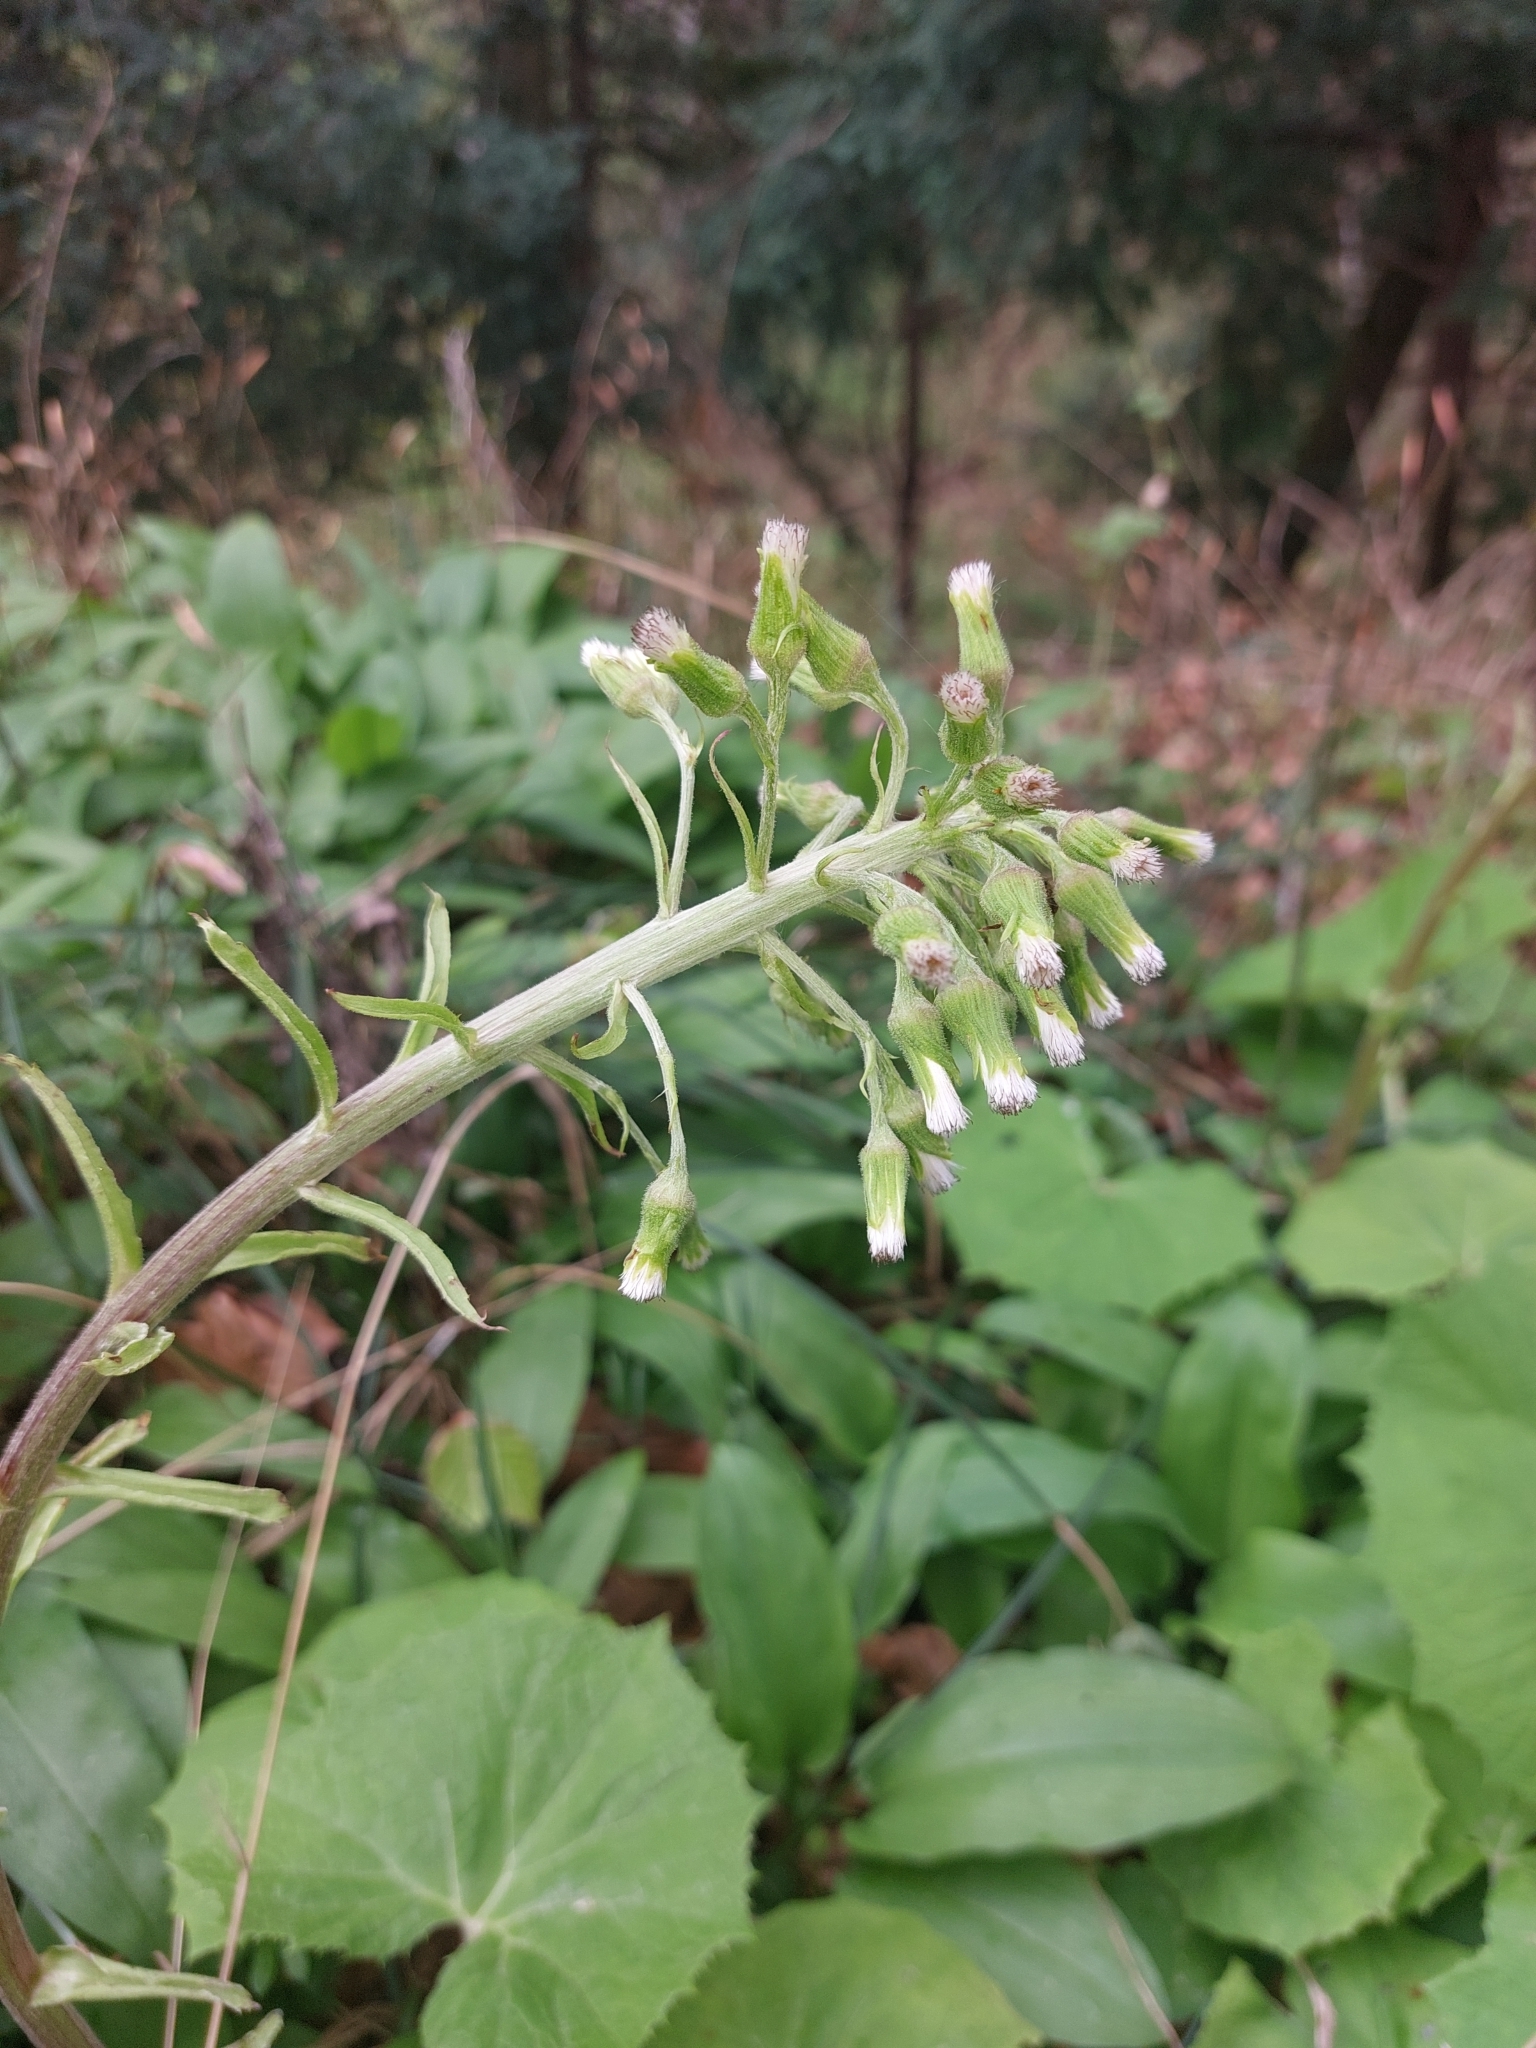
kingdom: Plantae
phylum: Tracheophyta
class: Magnoliopsida
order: Asterales
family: Asteraceae
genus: Petasites
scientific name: Petasites albus
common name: White butterbur
